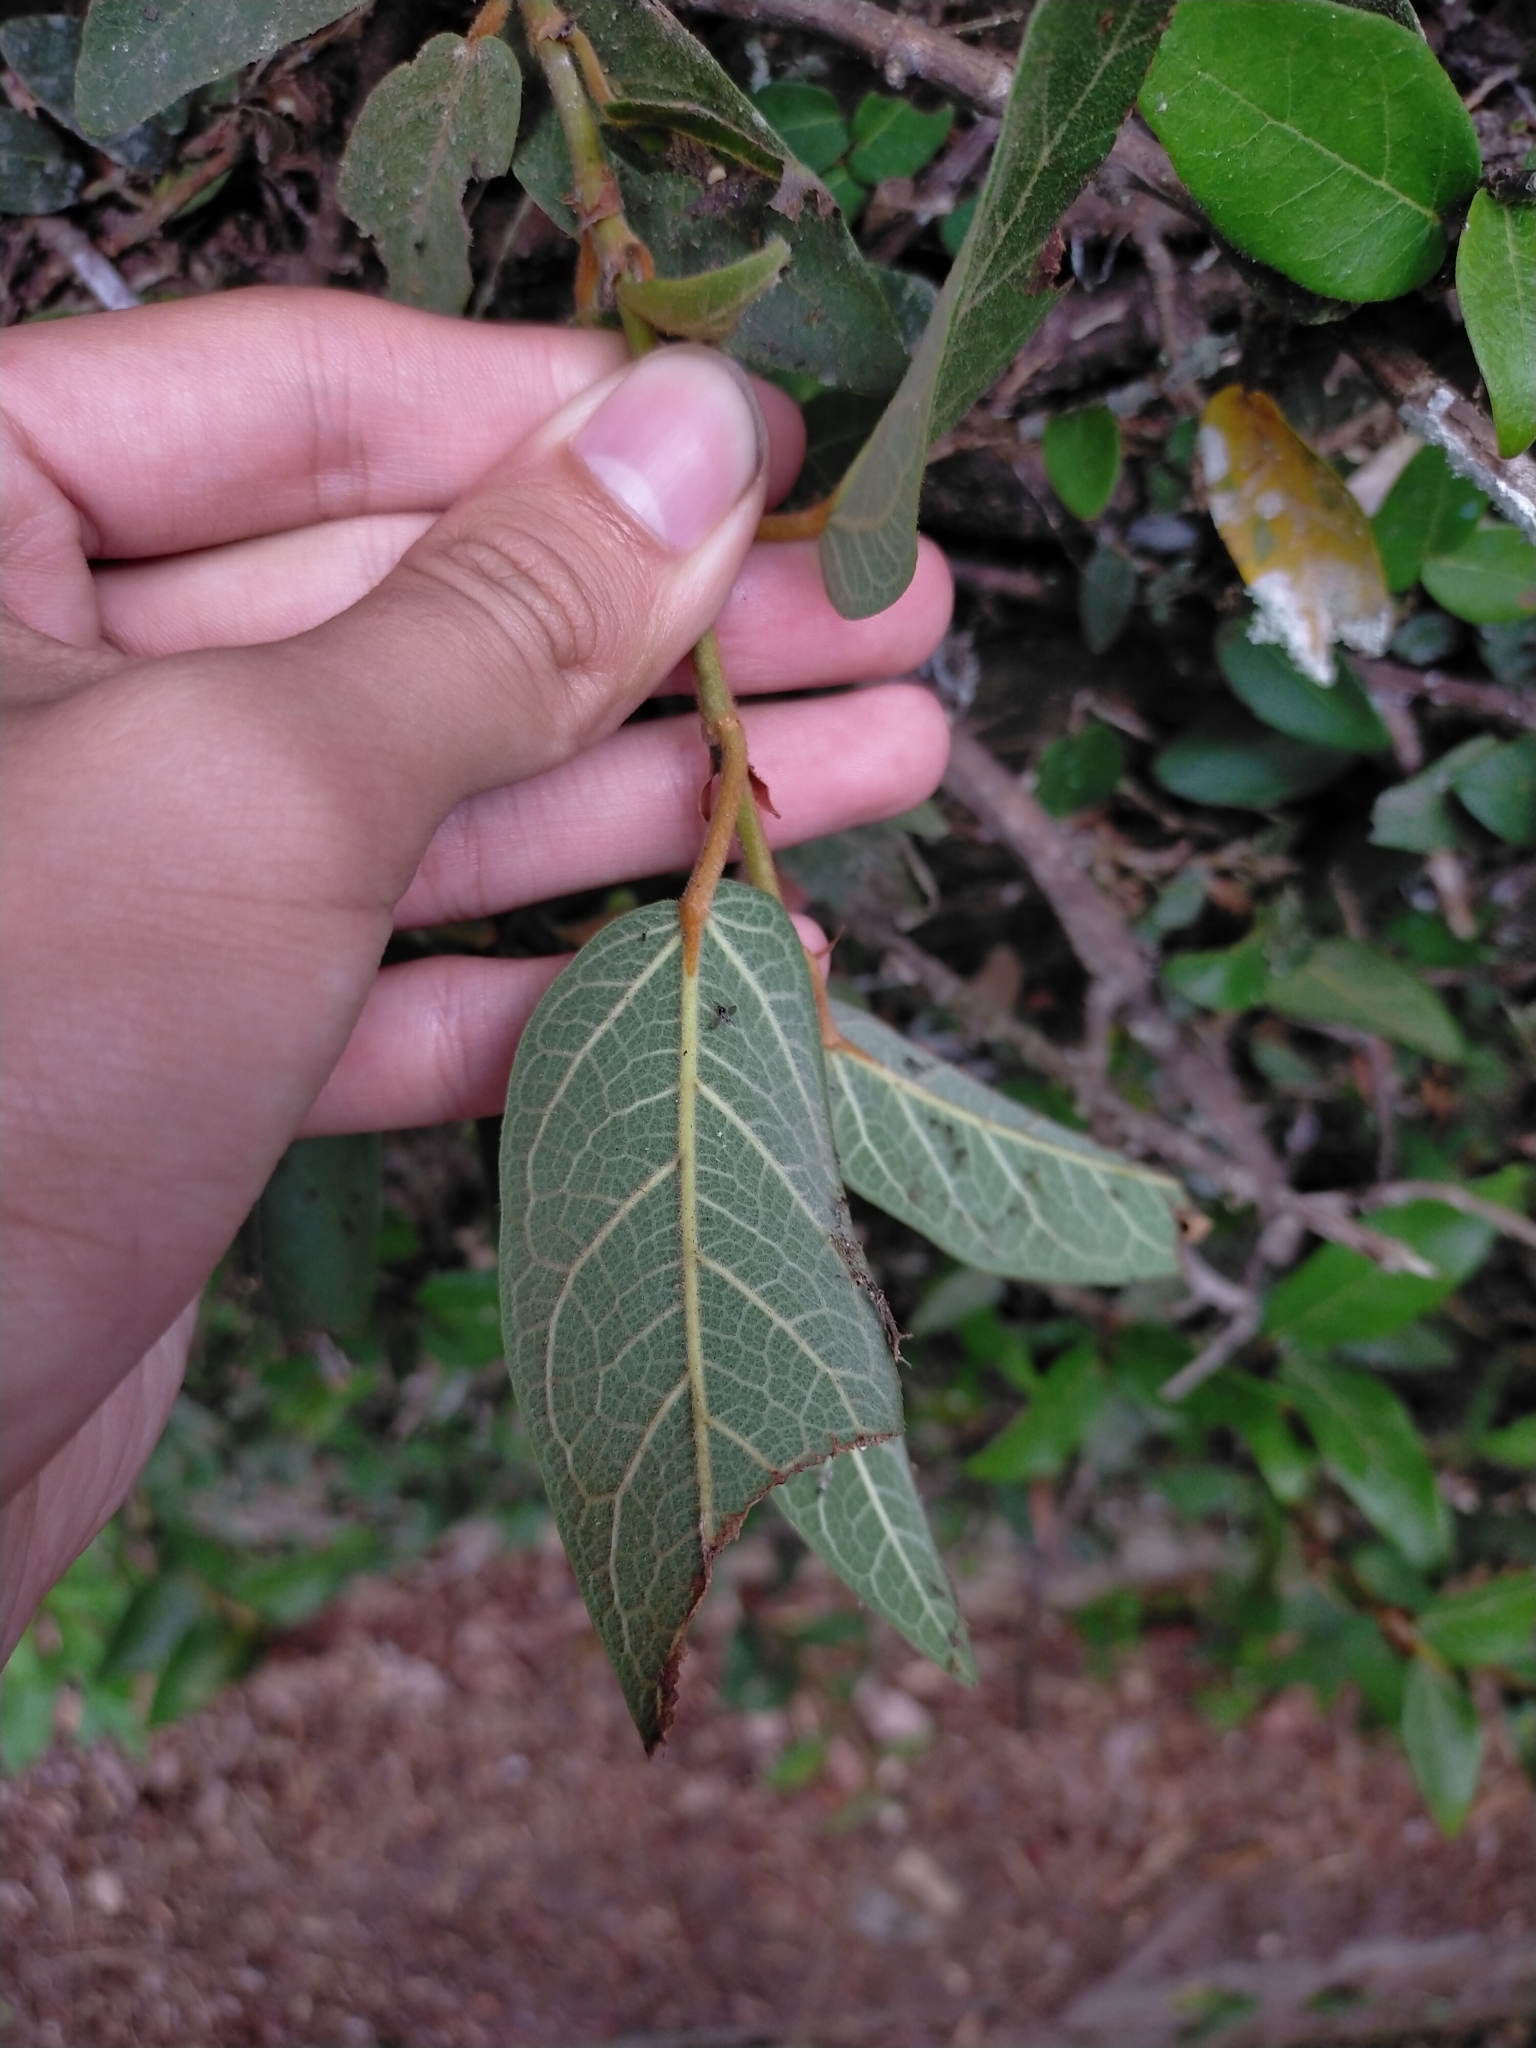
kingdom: Plantae
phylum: Tracheophyta
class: Magnoliopsida
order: Rosales
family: Moraceae
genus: Ficus
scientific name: Ficus pumila
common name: Climbingfig
